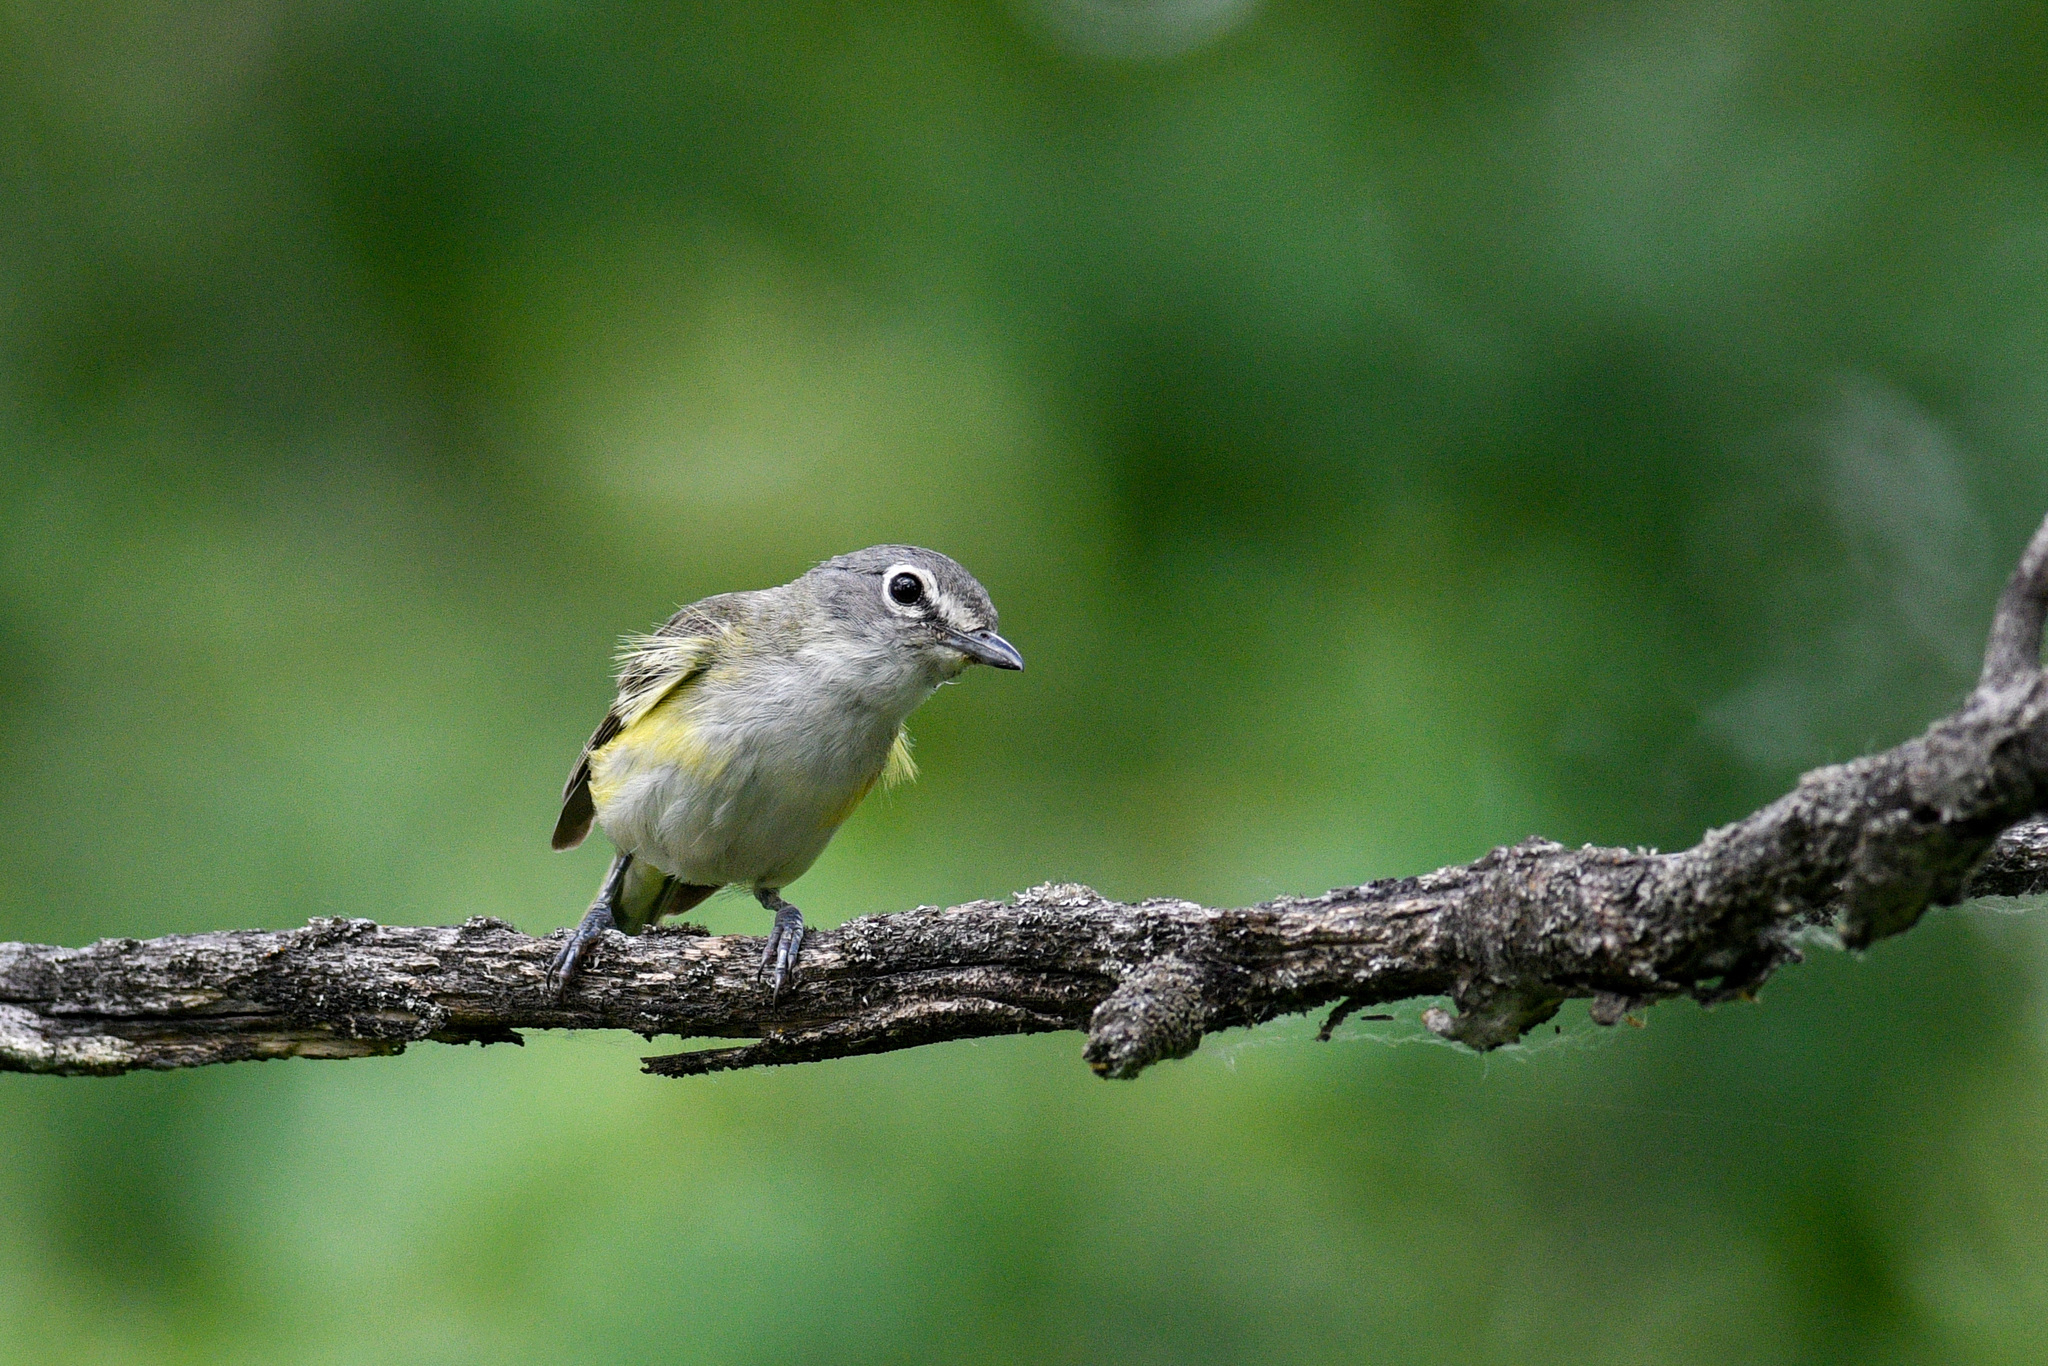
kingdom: Animalia
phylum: Chordata
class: Aves
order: Passeriformes
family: Vireonidae
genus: Vireo
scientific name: Vireo solitarius
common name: Blue-headed vireo
